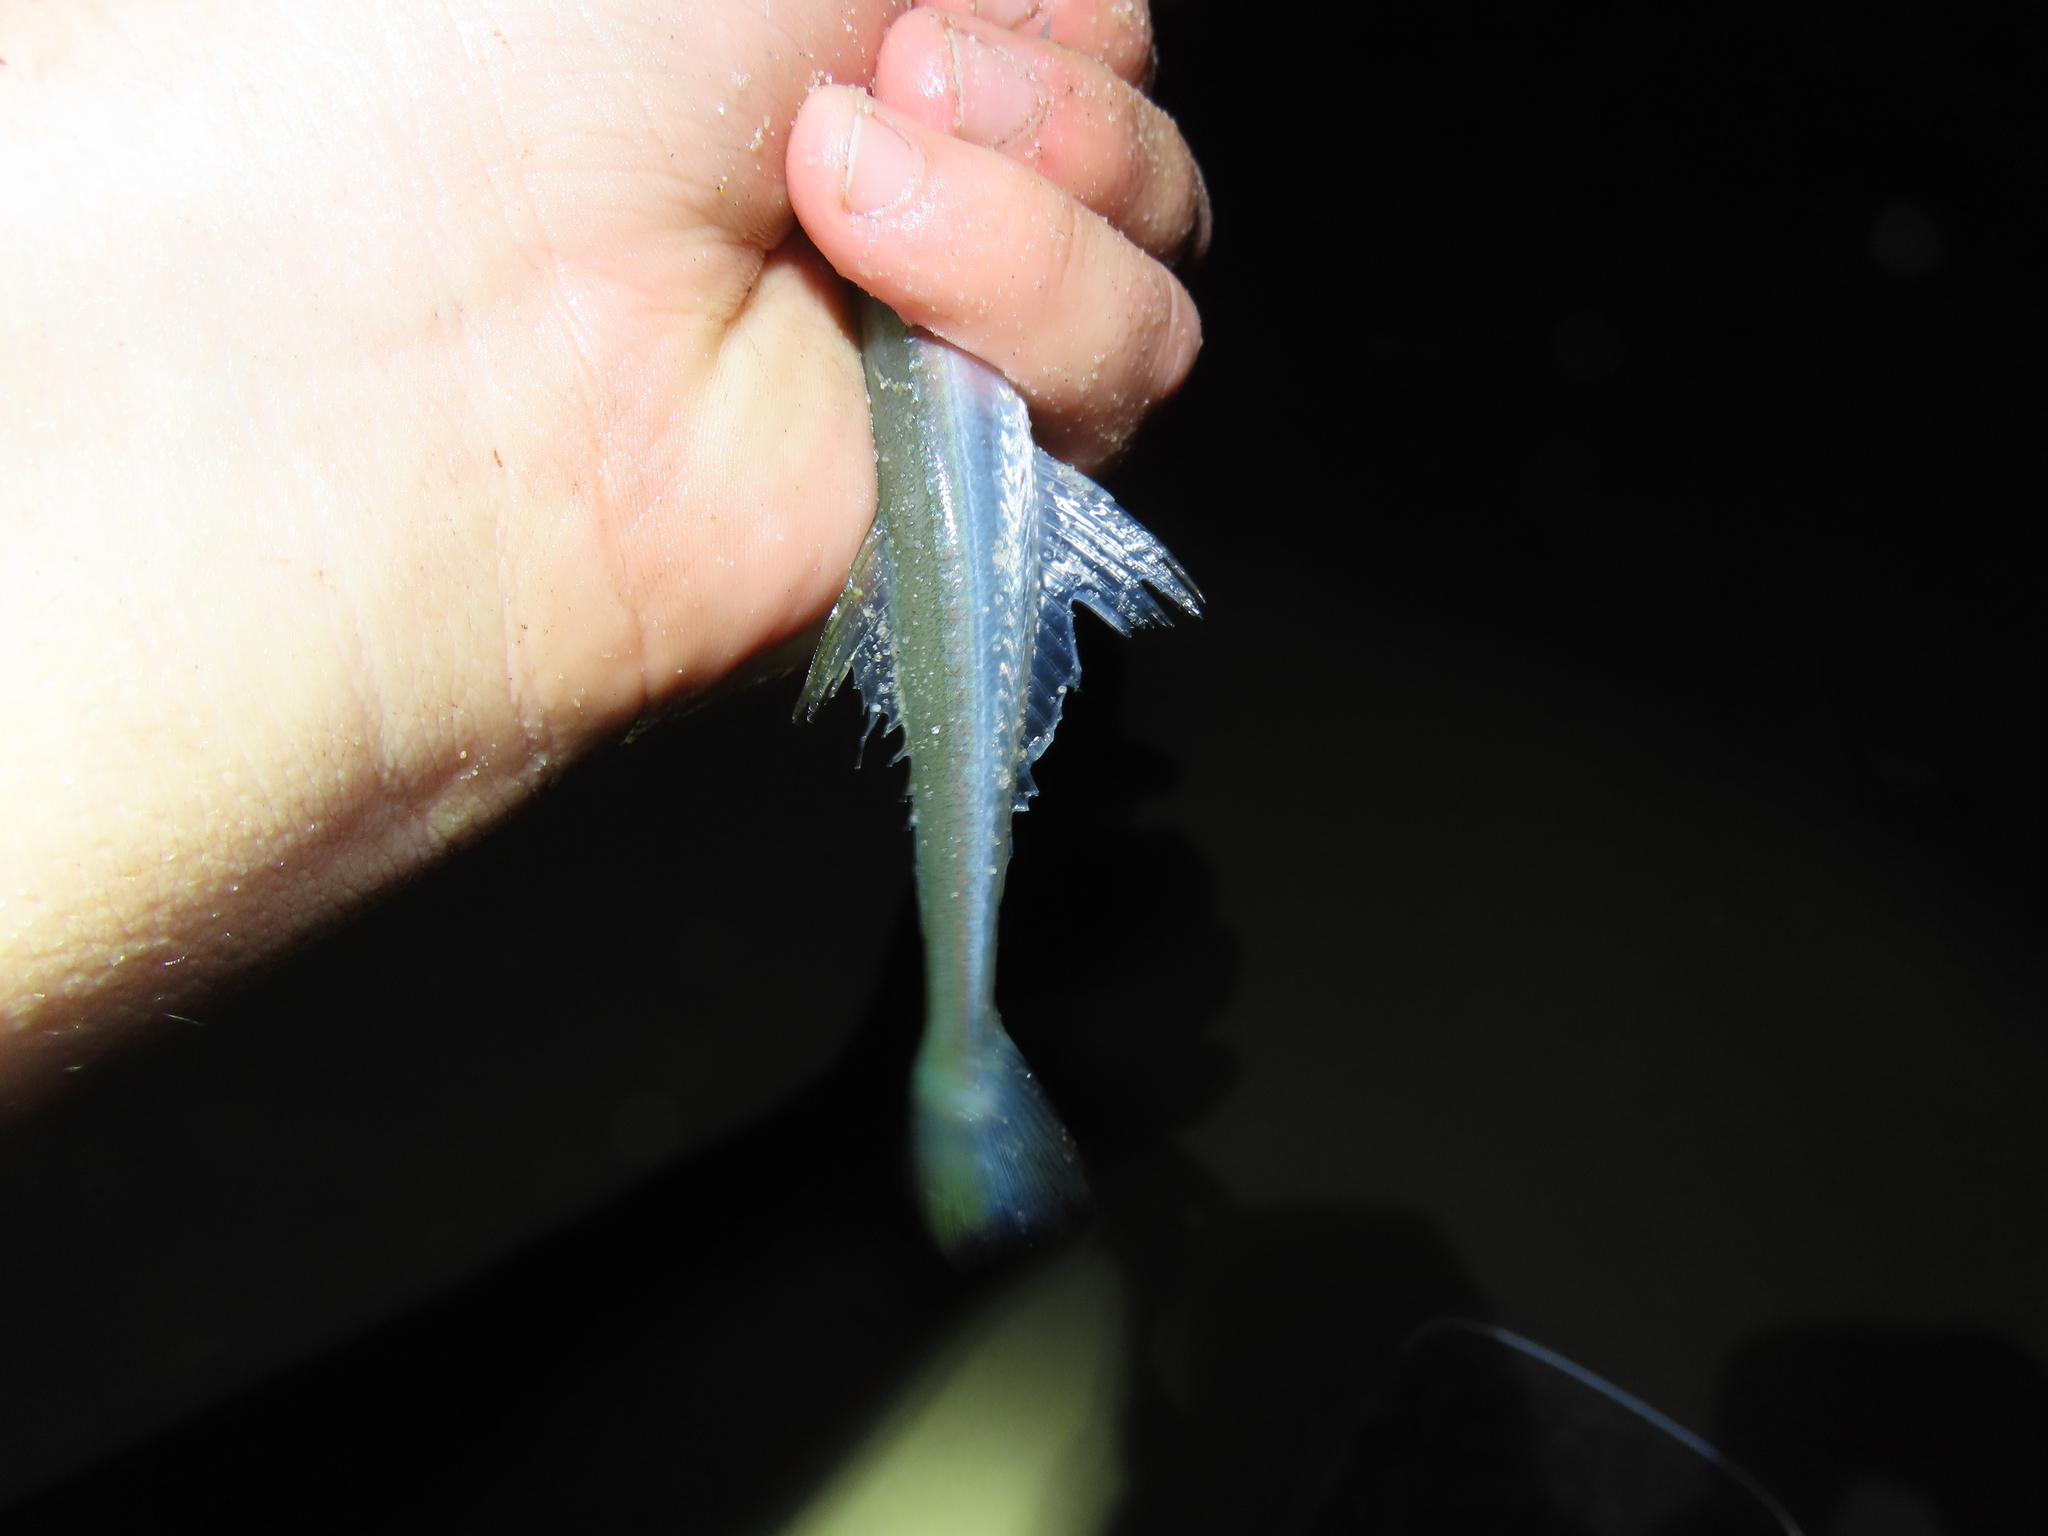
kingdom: Animalia
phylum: Chordata
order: Beloniformes
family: Belonidae
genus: Strongylura
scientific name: Strongylura marina
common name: Atlantic needlefish
